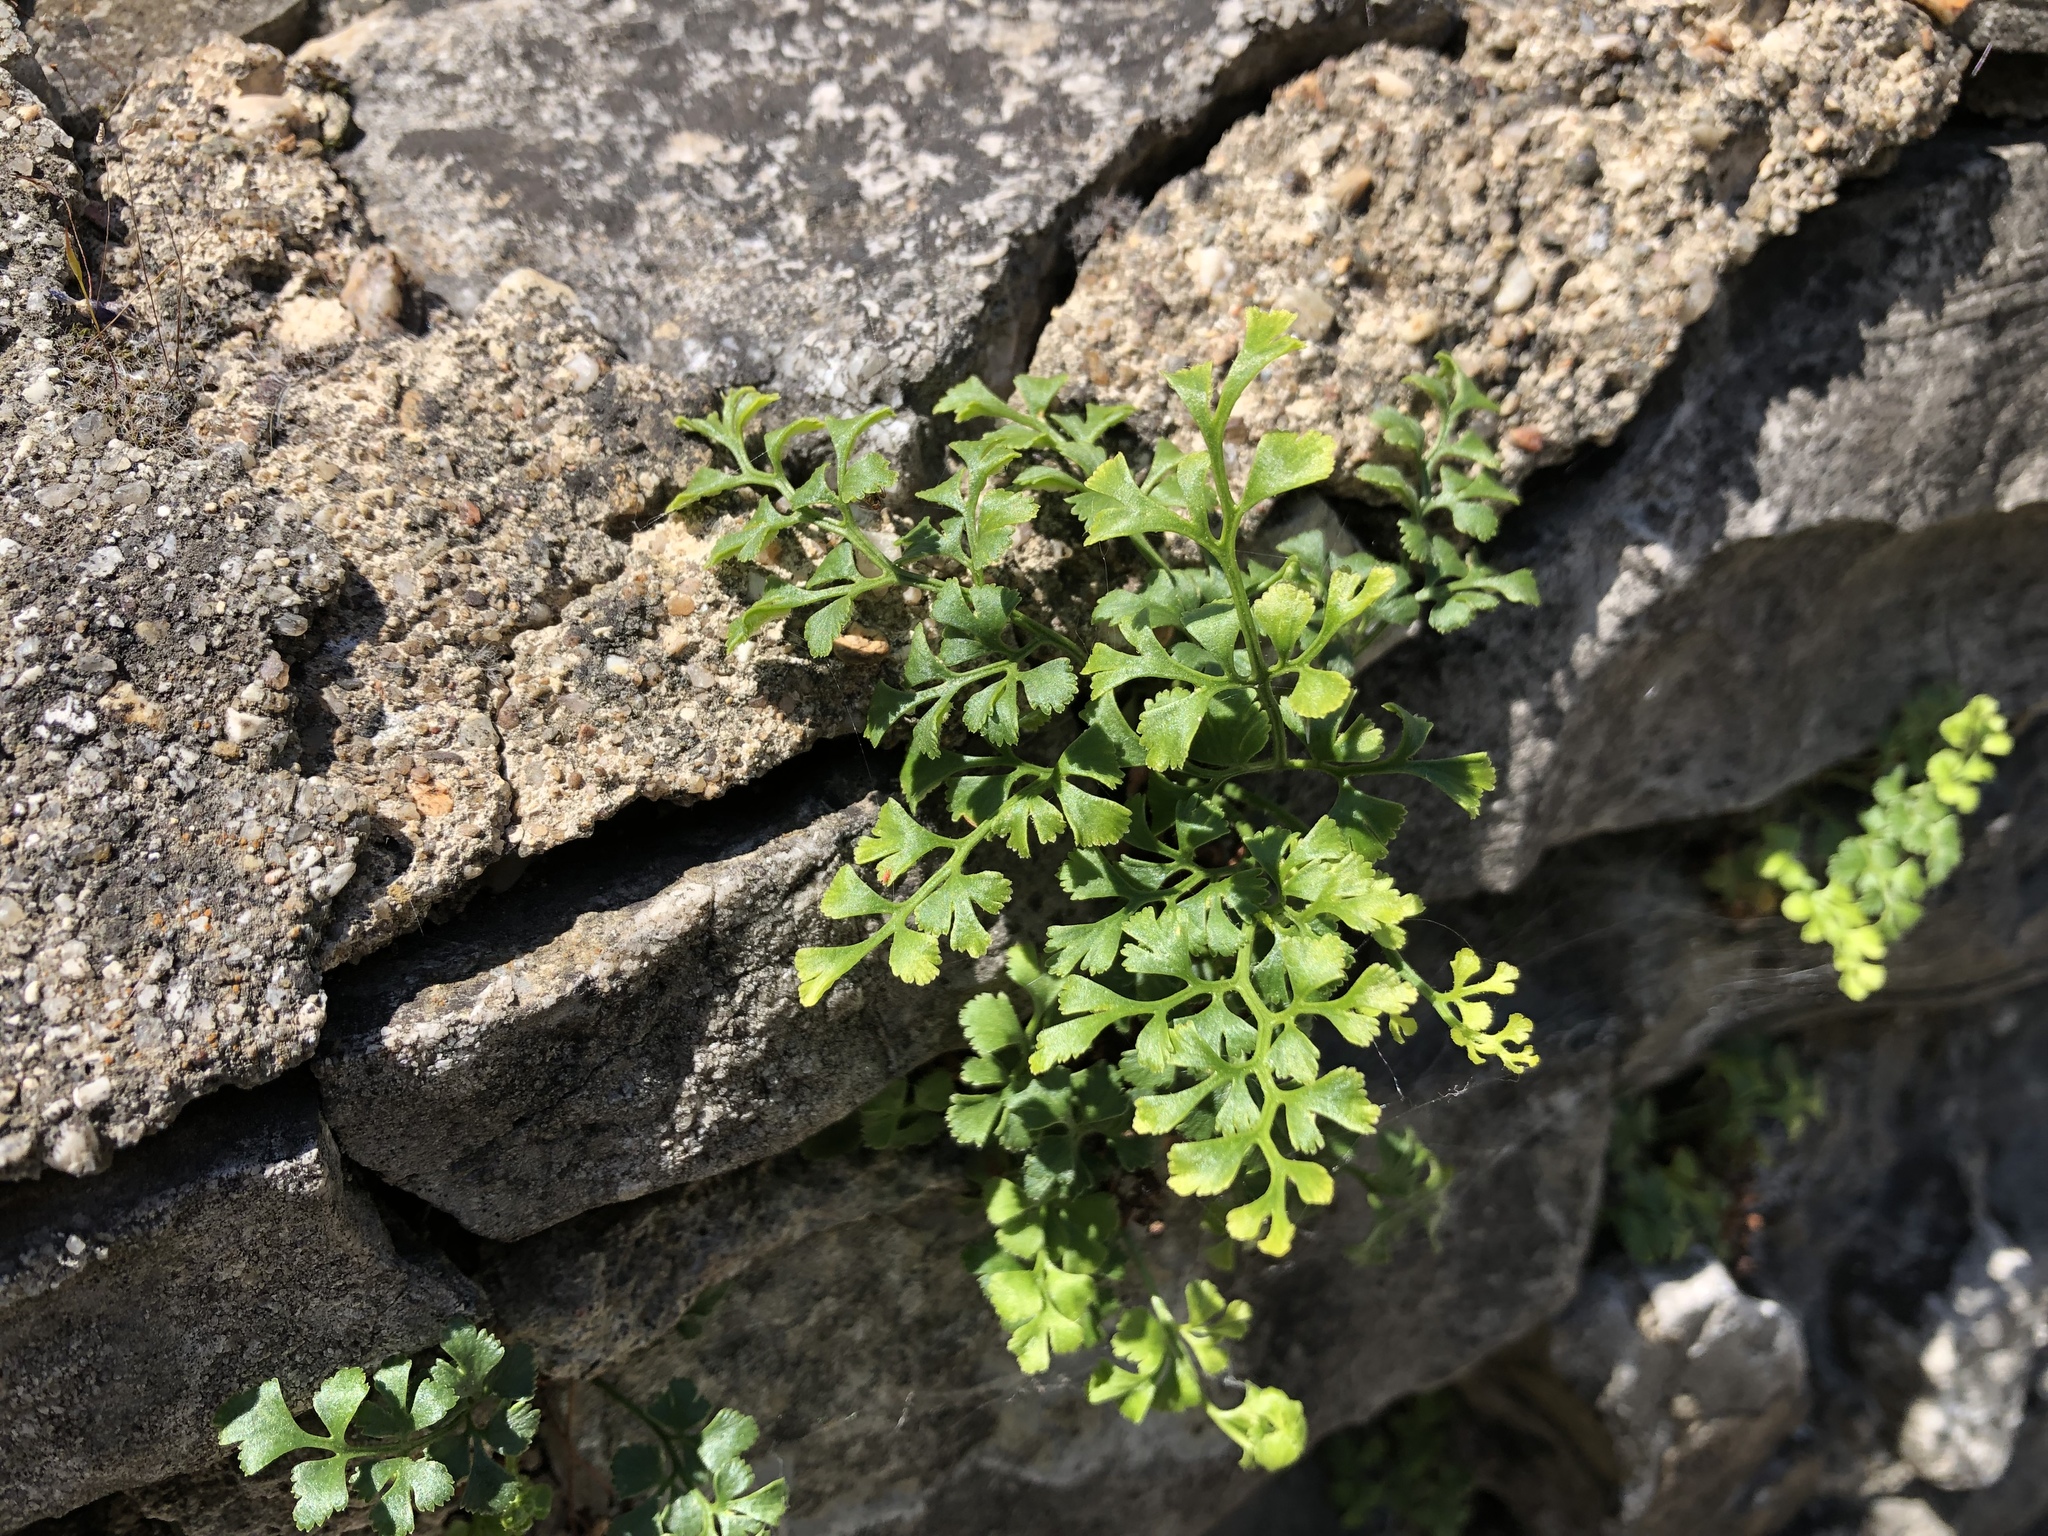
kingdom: Plantae
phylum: Tracheophyta
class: Polypodiopsida
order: Polypodiales
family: Aspleniaceae
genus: Asplenium
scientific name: Asplenium ruta-muraria
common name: Wall-rue
